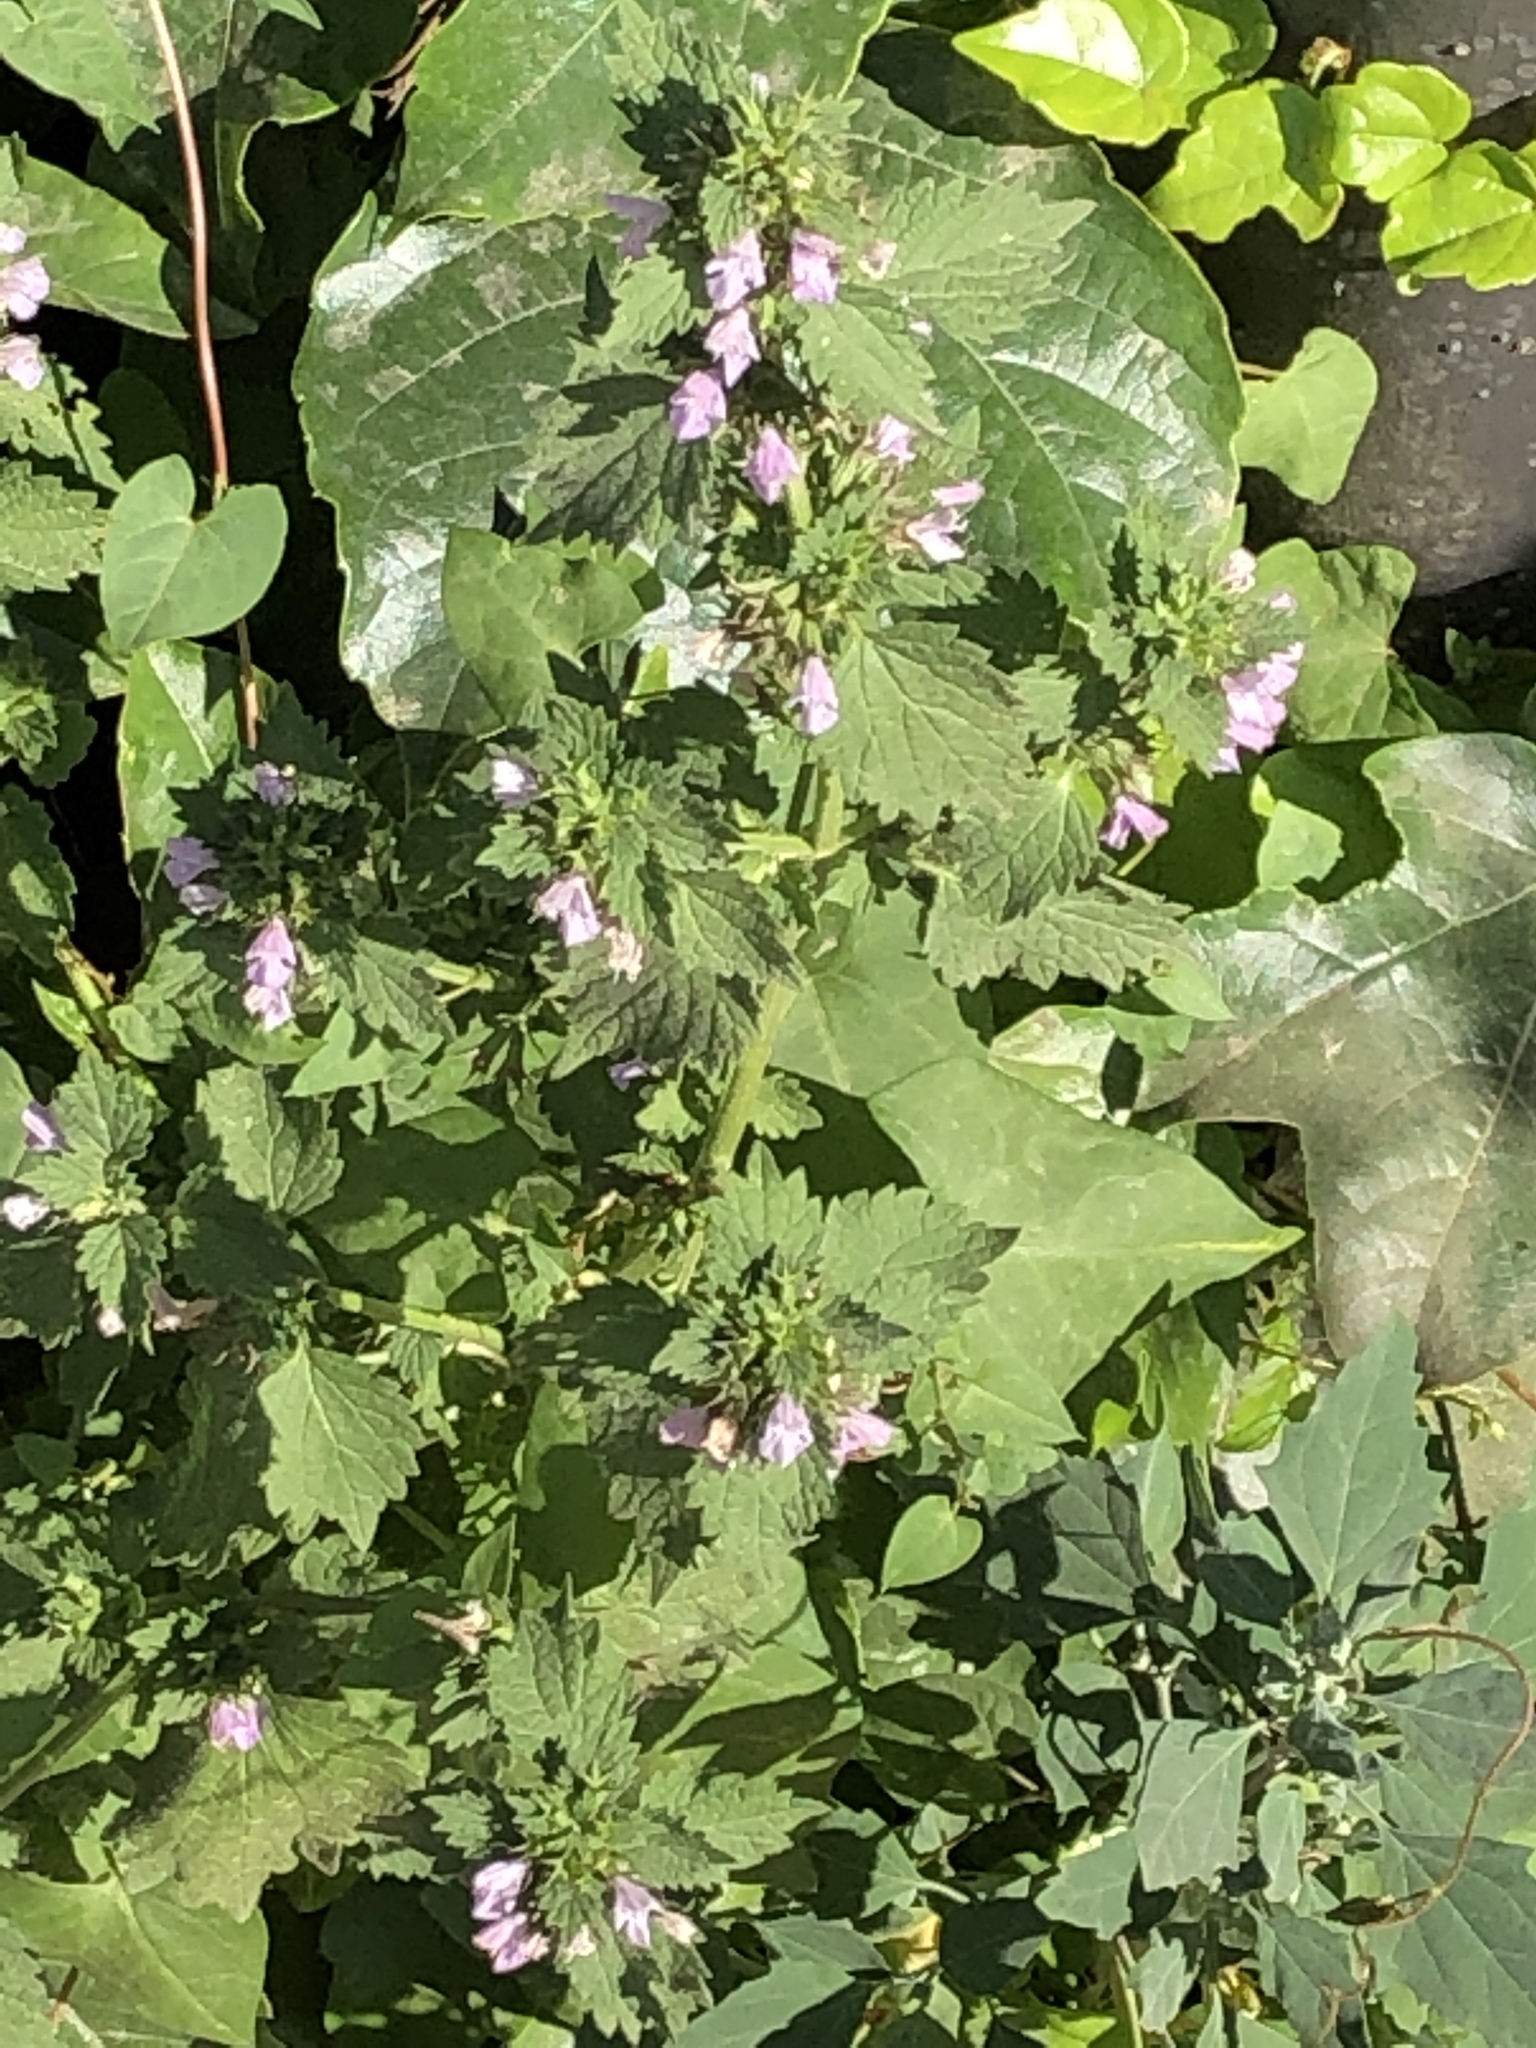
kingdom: Plantae
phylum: Tracheophyta
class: Magnoliopsida
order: Lamiales
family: Lamiaceae
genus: Ballota
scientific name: Ballota nigra
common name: Black horehound
